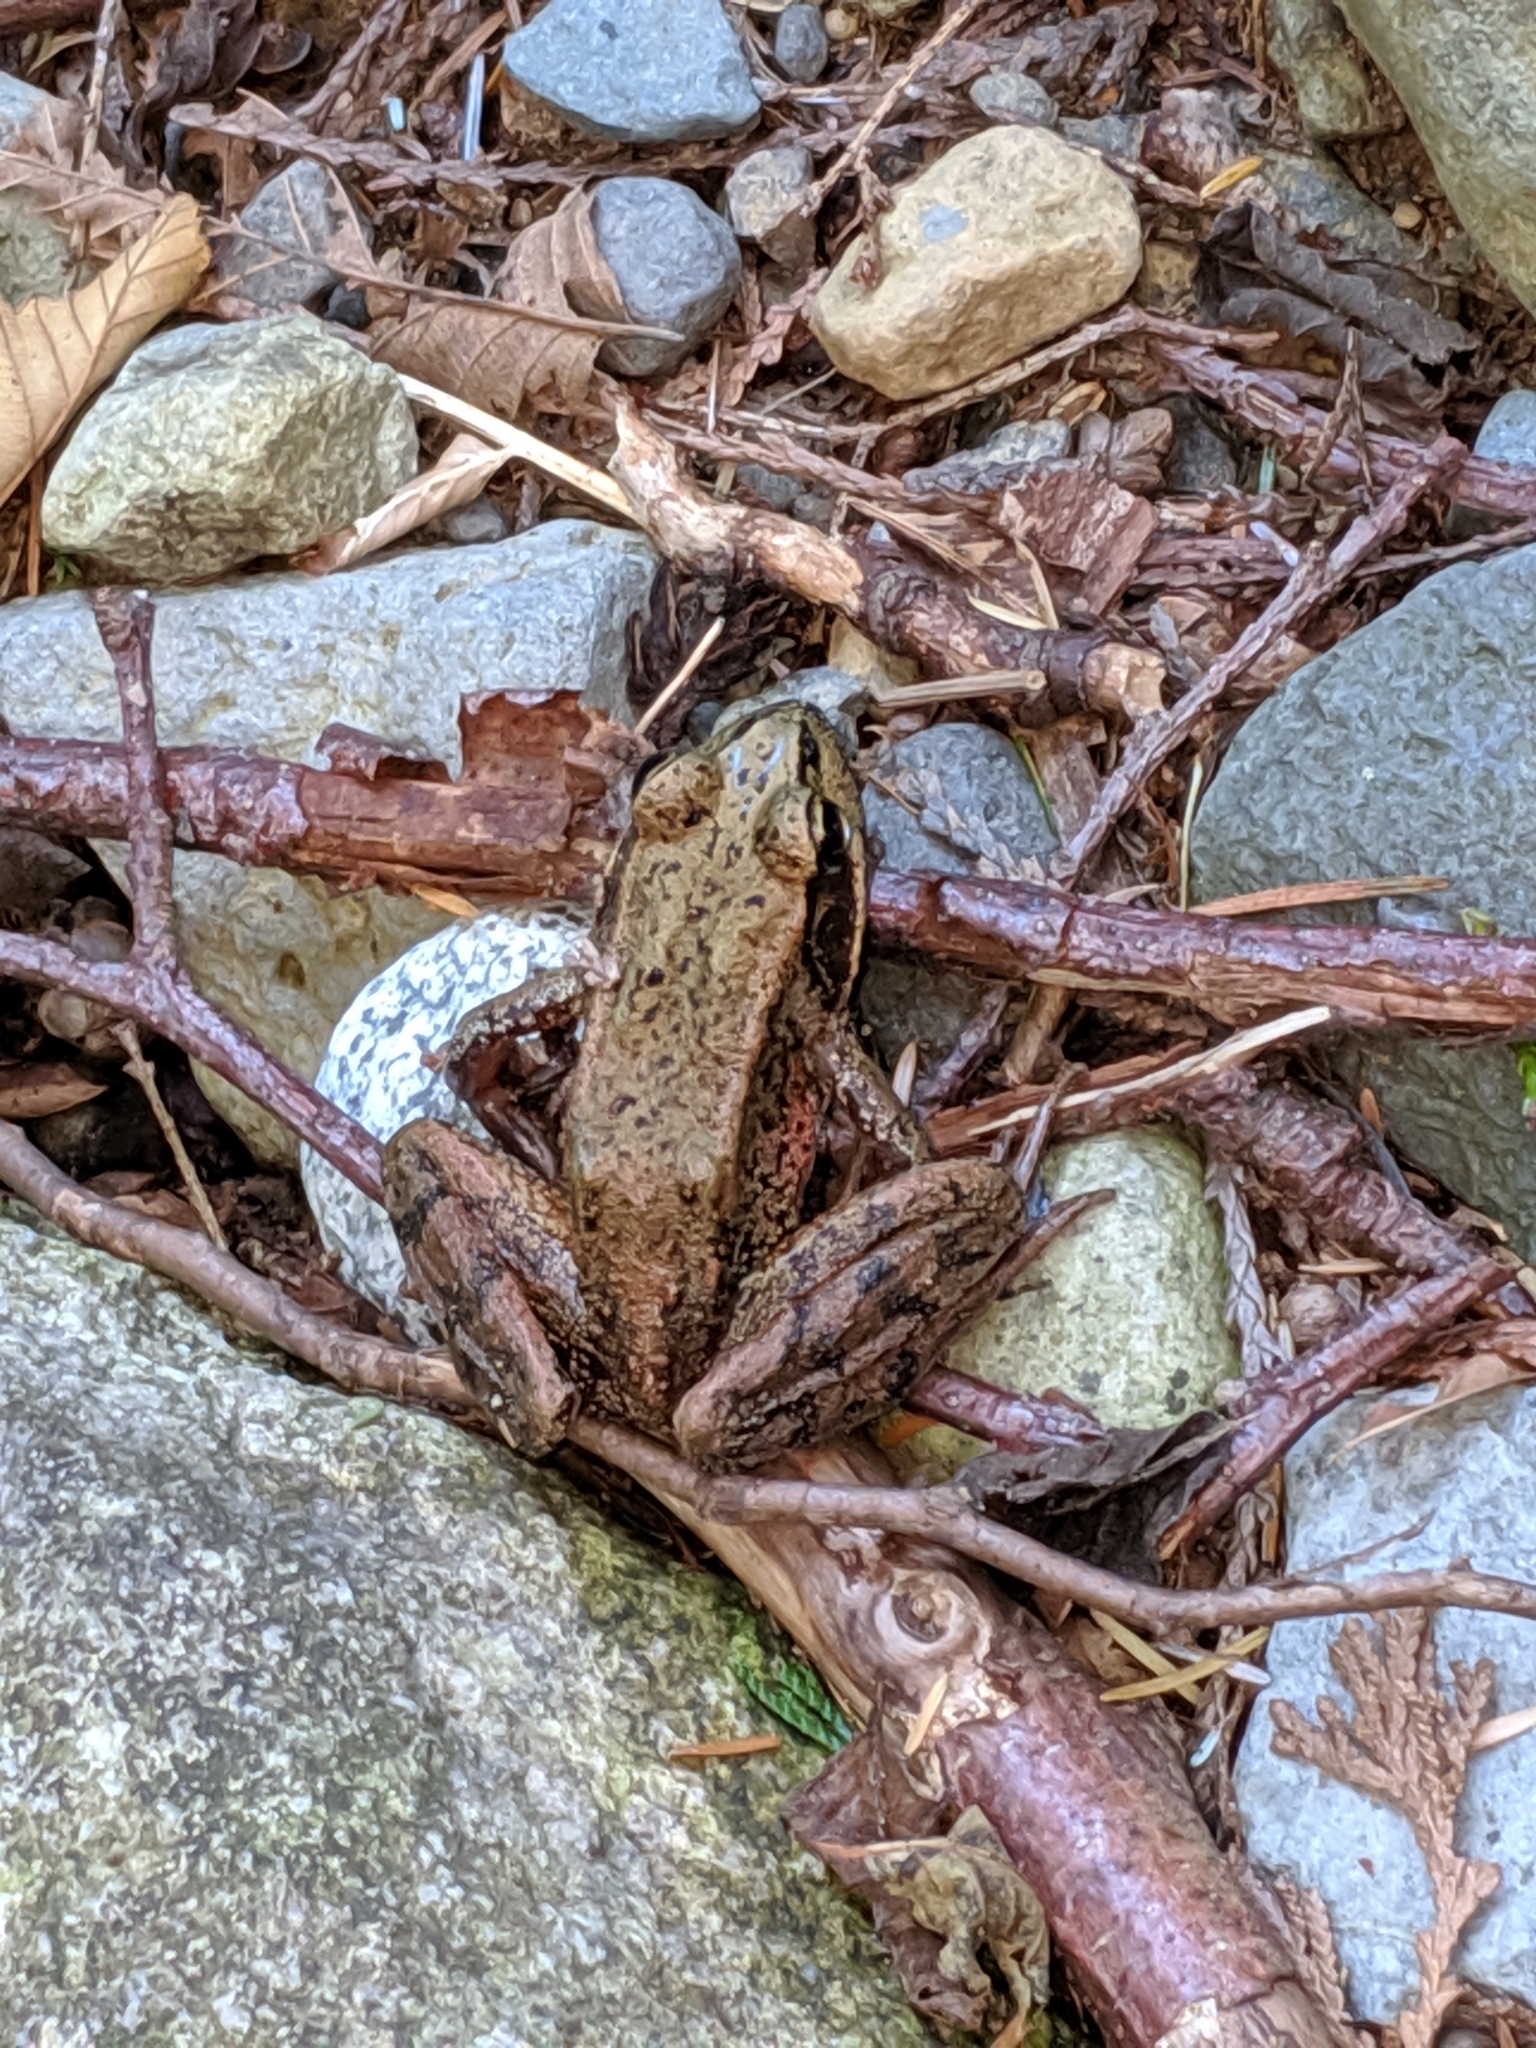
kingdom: Animalia
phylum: Chordata
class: Amphibia
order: Anura
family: Ranidae
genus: Rana
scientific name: Rana aurora
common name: Red-legged frog
